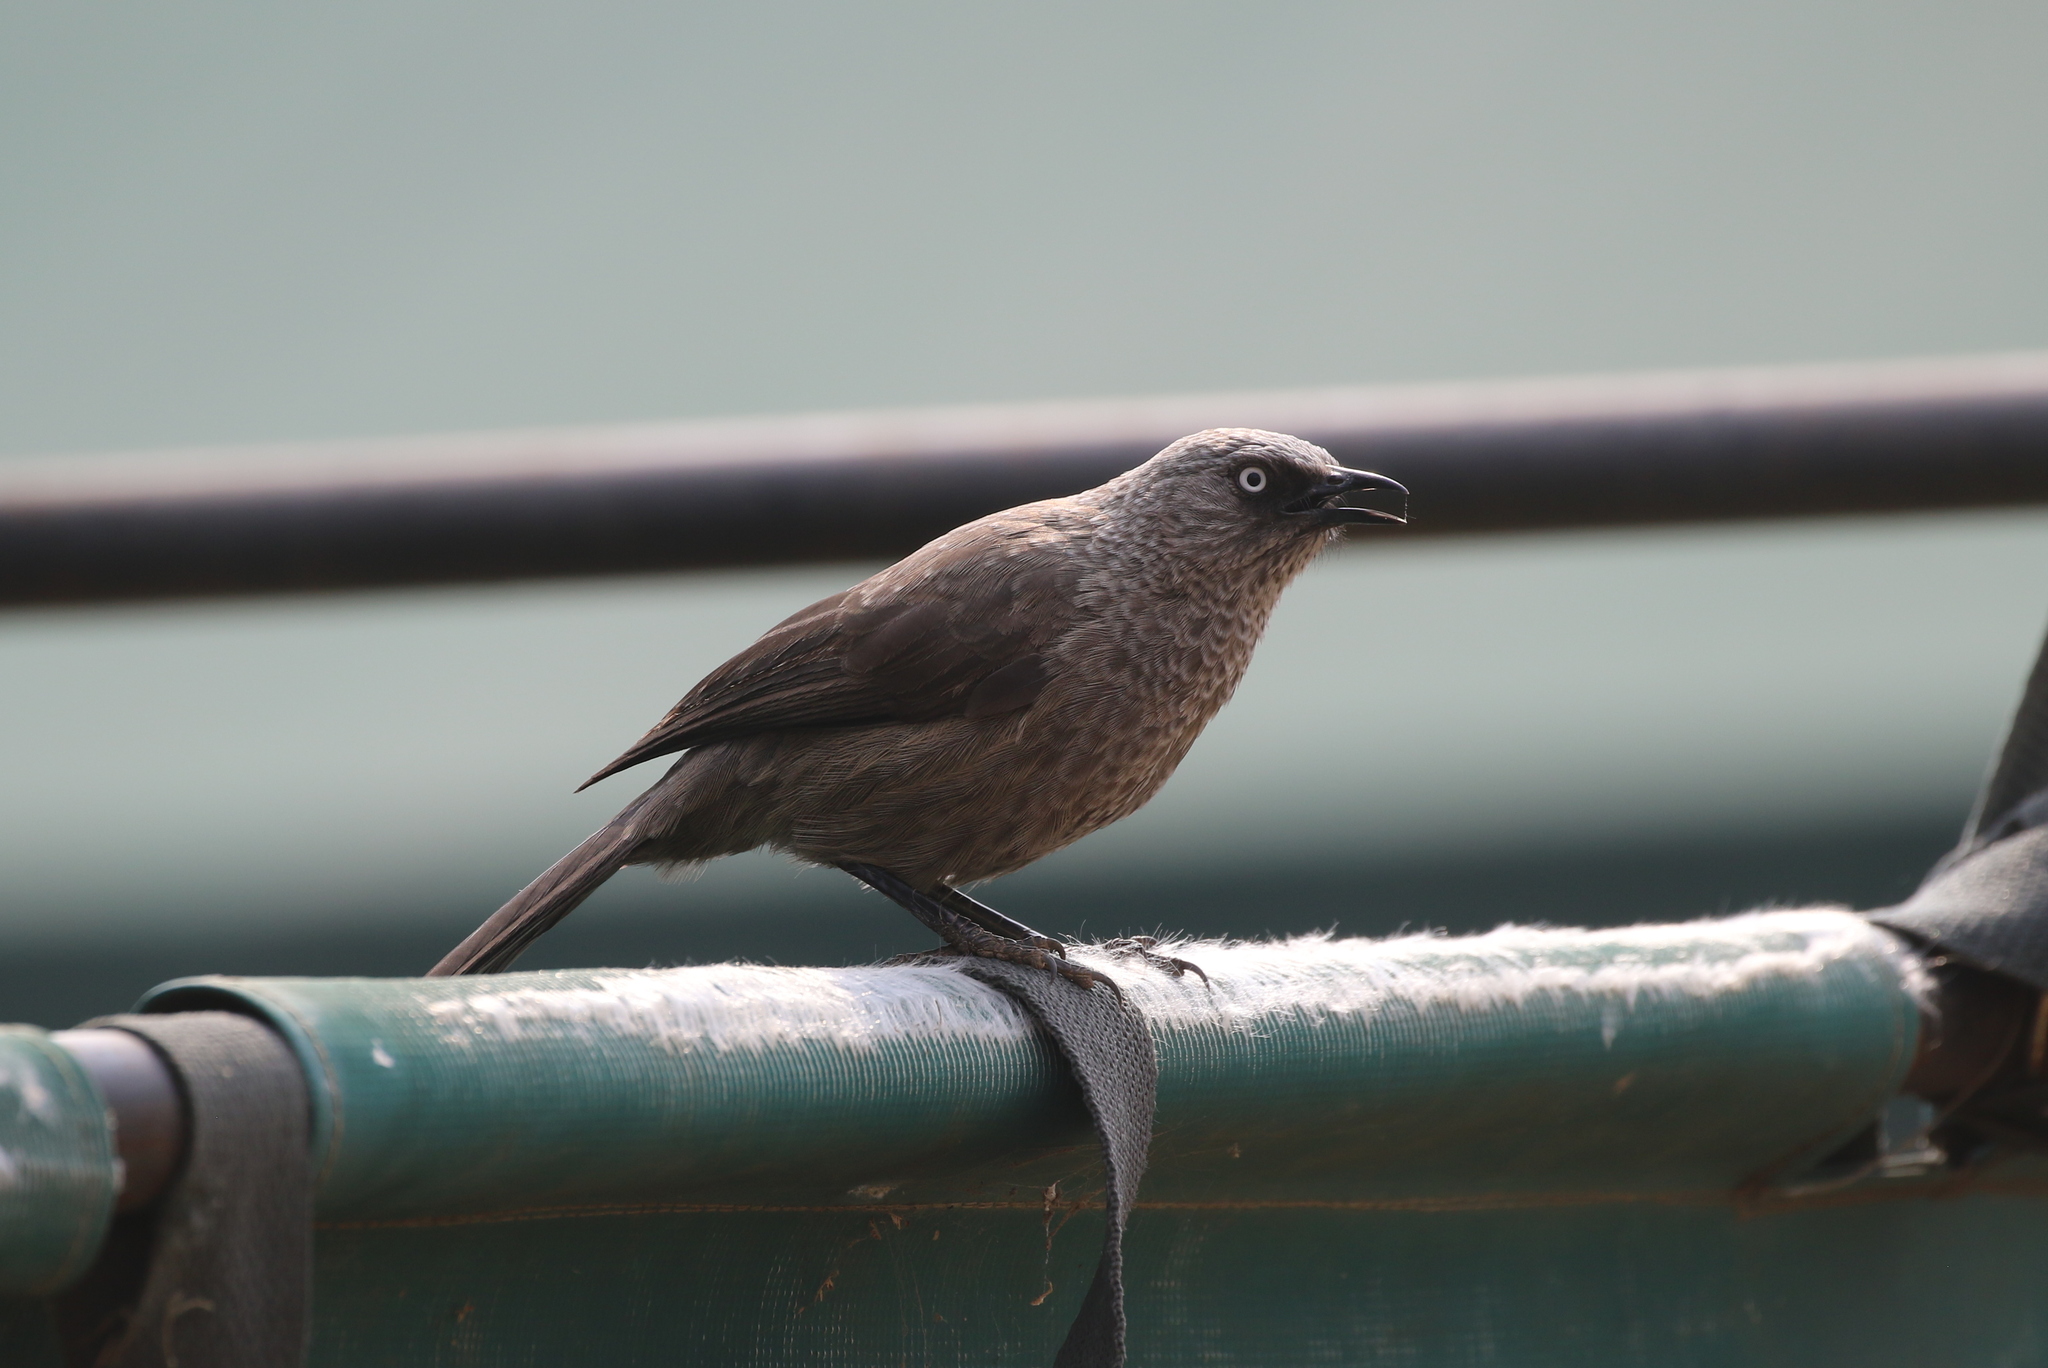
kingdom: Animalia
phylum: Chordata
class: Aves
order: Passeriformes
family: Leiothrichidae
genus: Turdoides
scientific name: Turdoides sharpei
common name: Black-lored babbler
